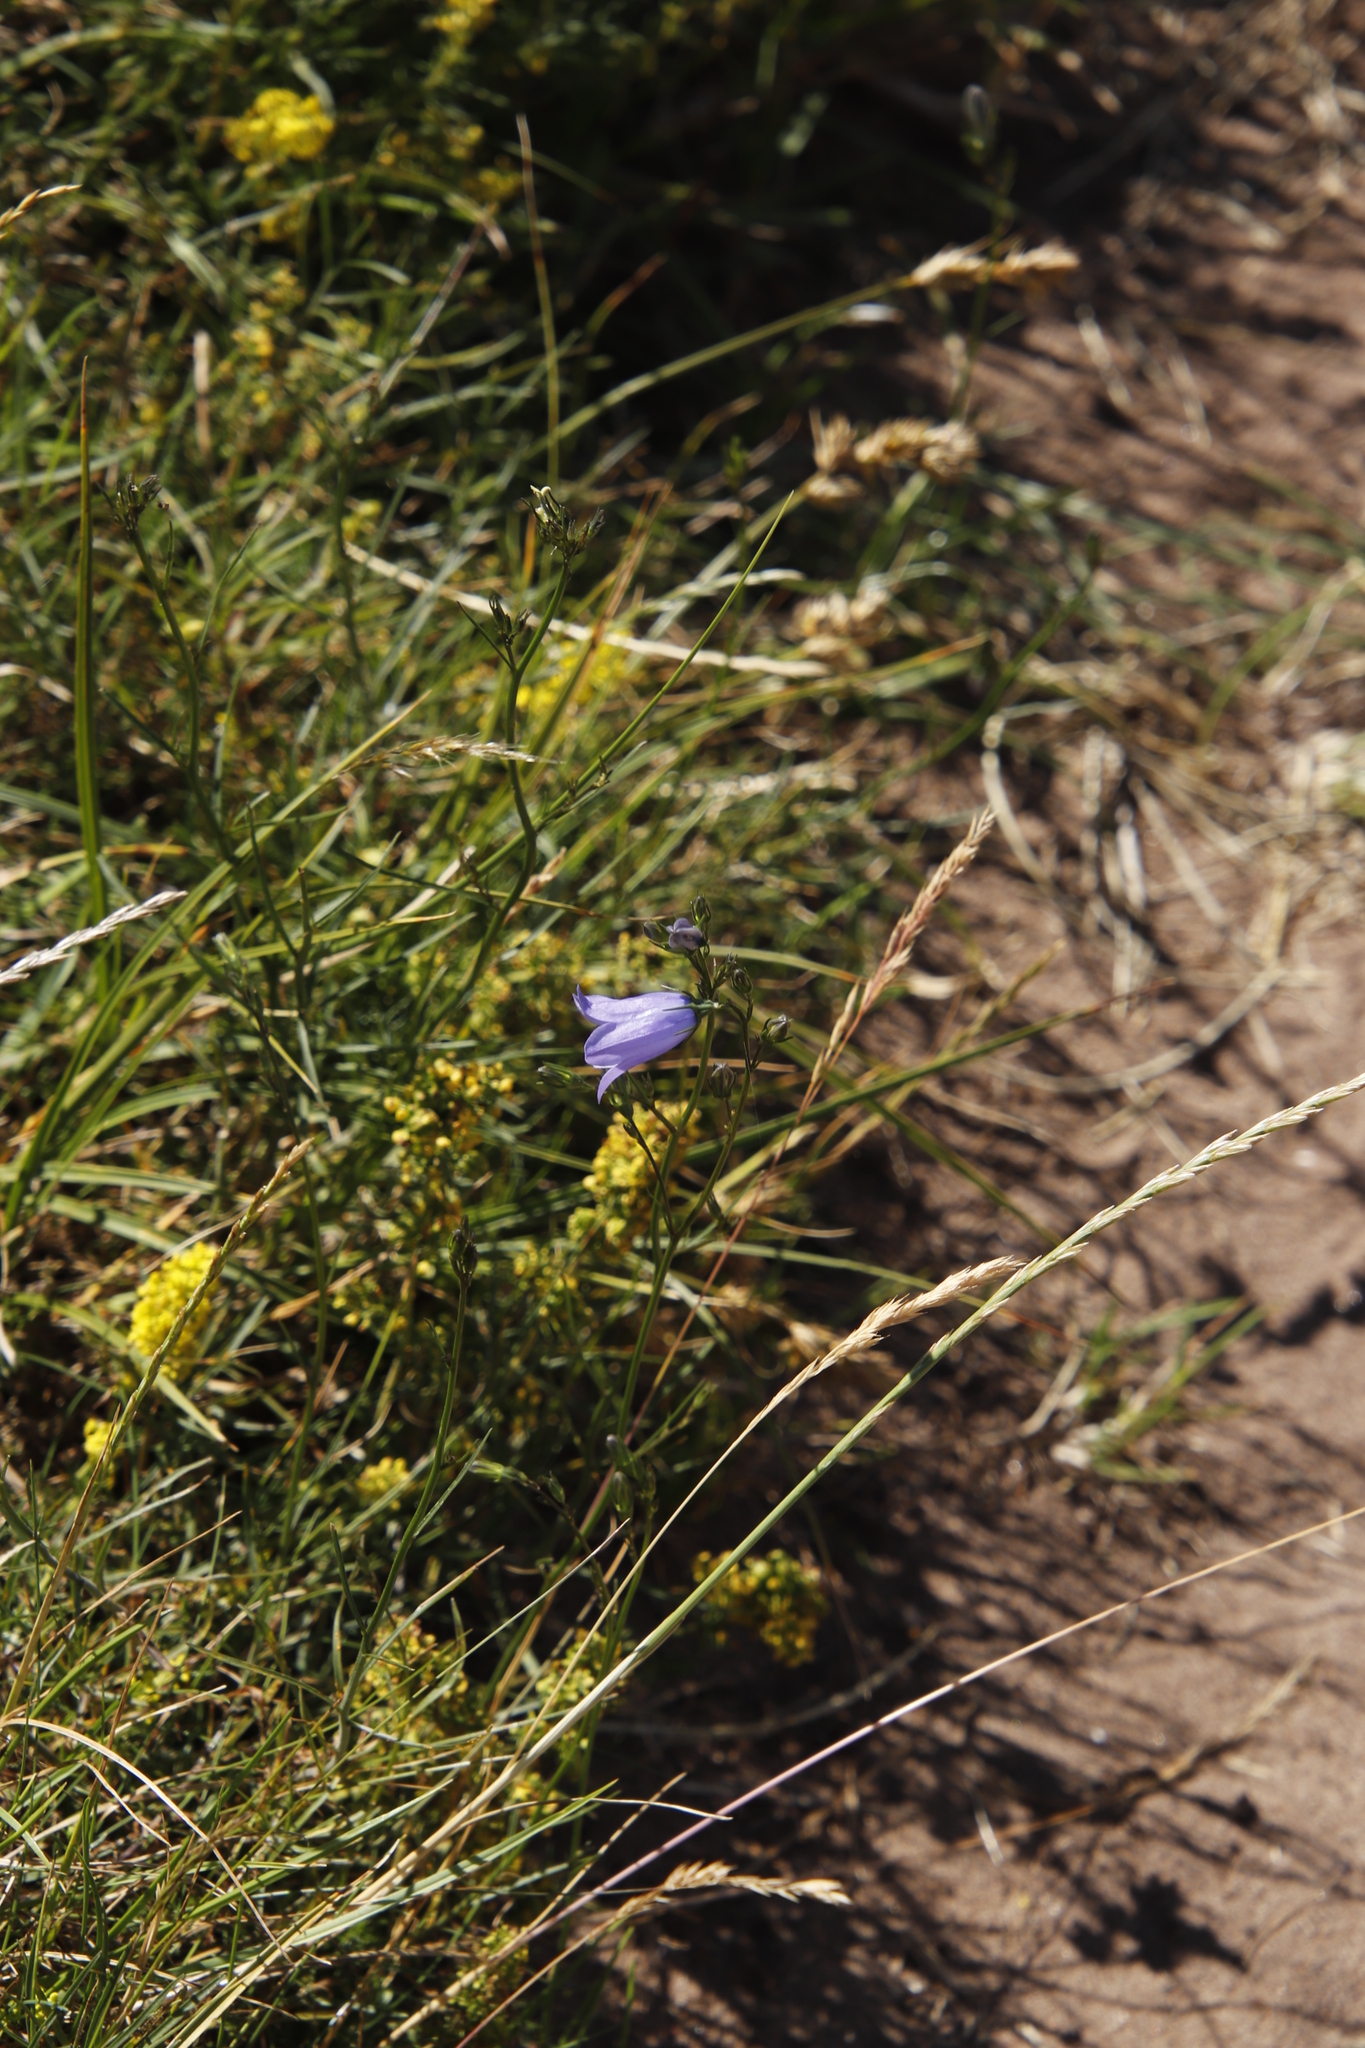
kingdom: Plantae
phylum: Tracheophyta
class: Magnoliopsida
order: Asterales
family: Campanulaceae
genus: Campanula
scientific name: Campanula rotundifolia
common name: Harebell
